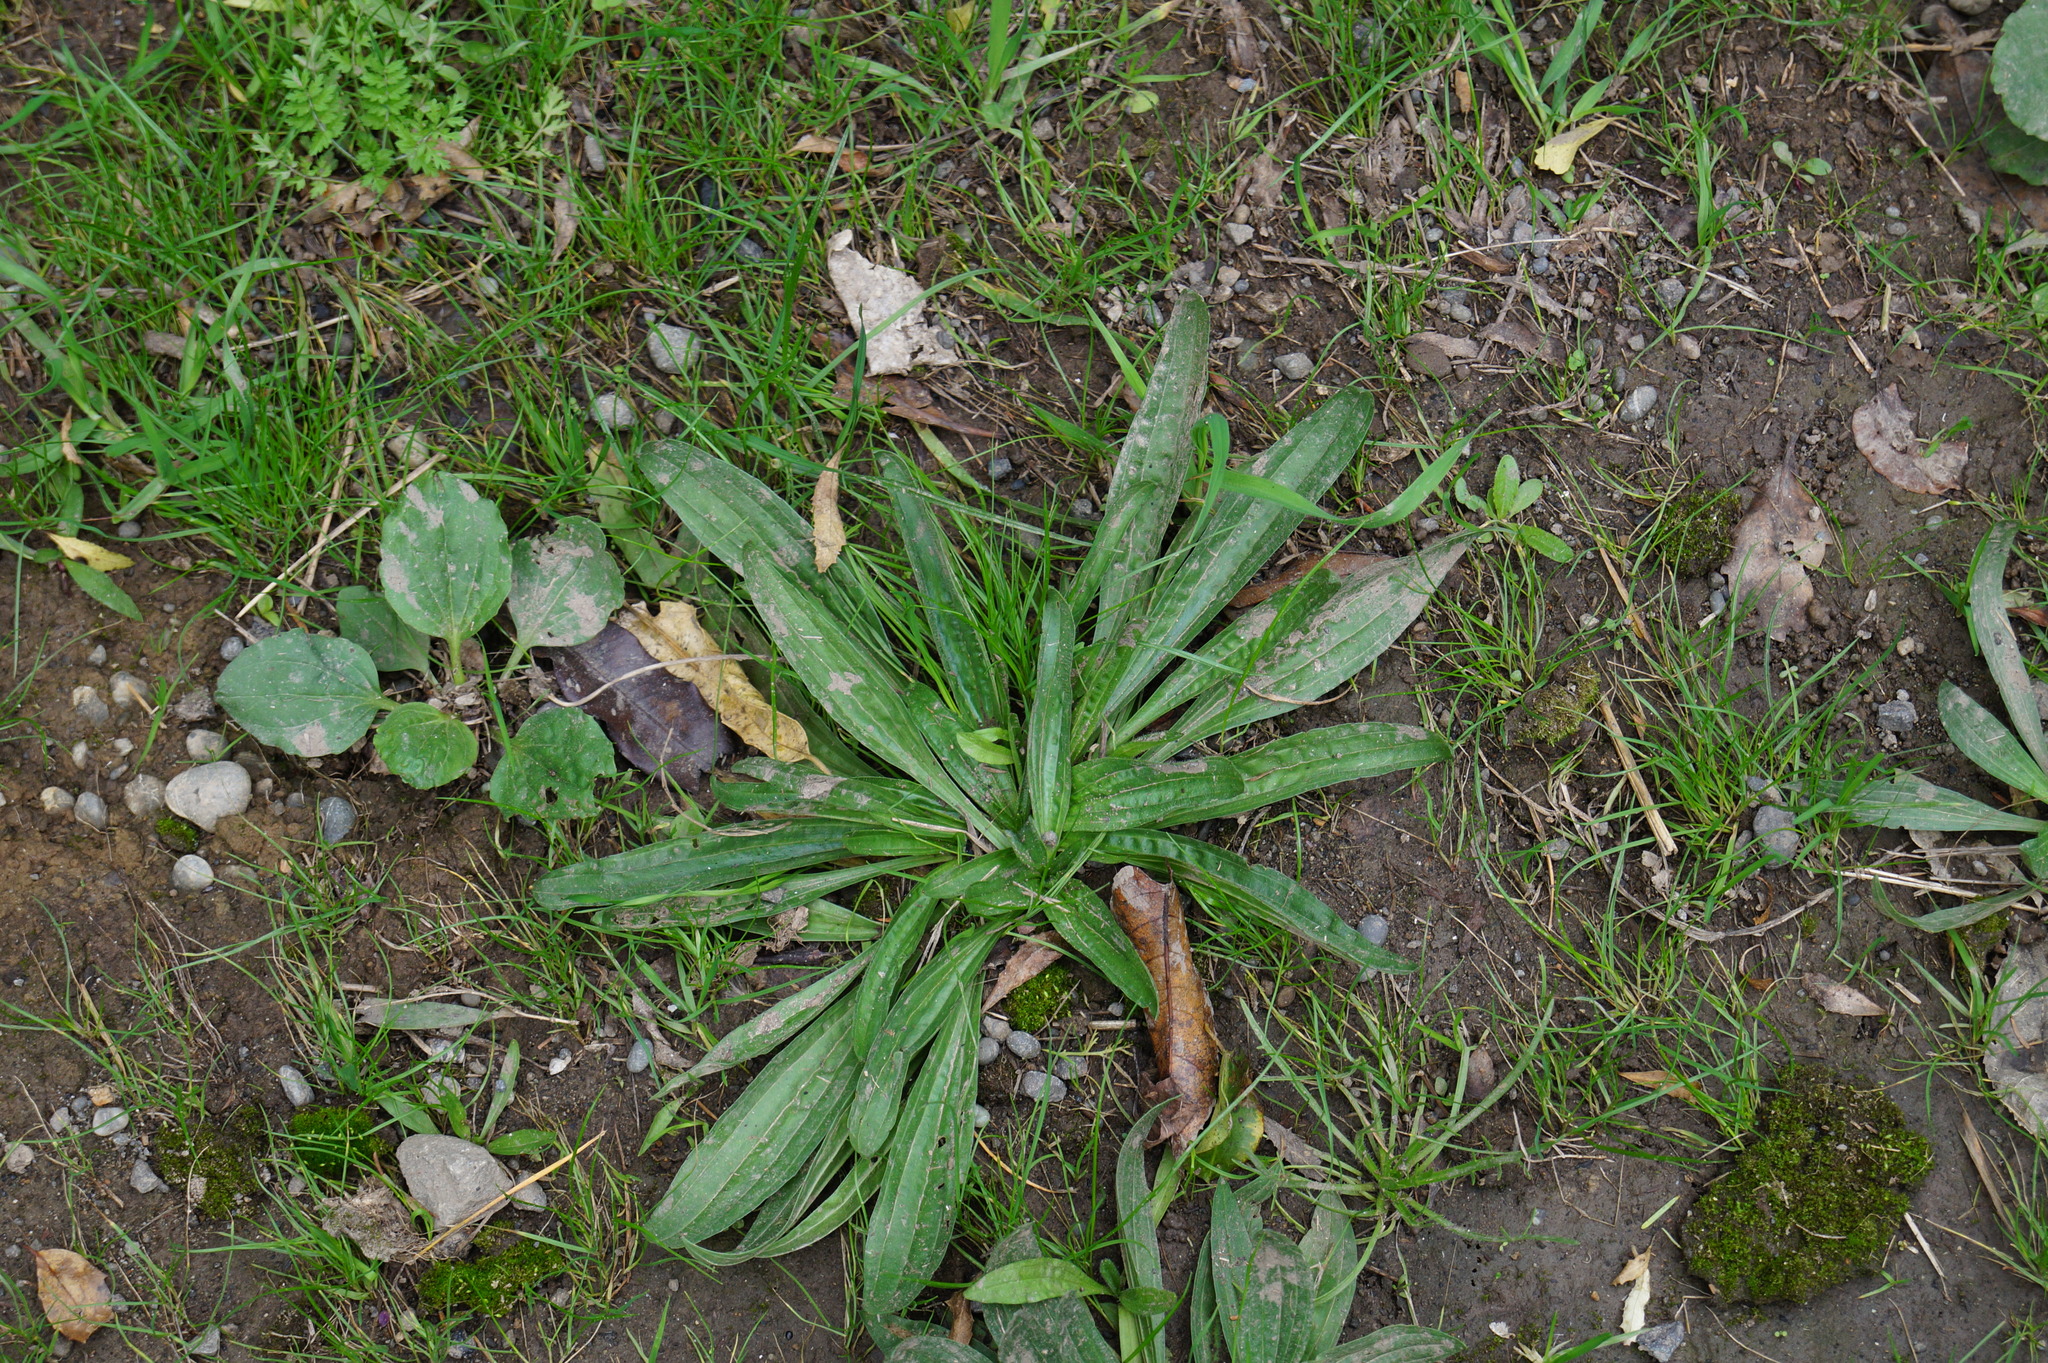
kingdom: Plantae
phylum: Tracheophyta
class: Magnoliopsida
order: Lamiales
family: Plantaginaceae
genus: Plantago
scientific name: Plantago lanceolata
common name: Ribwort plantain
